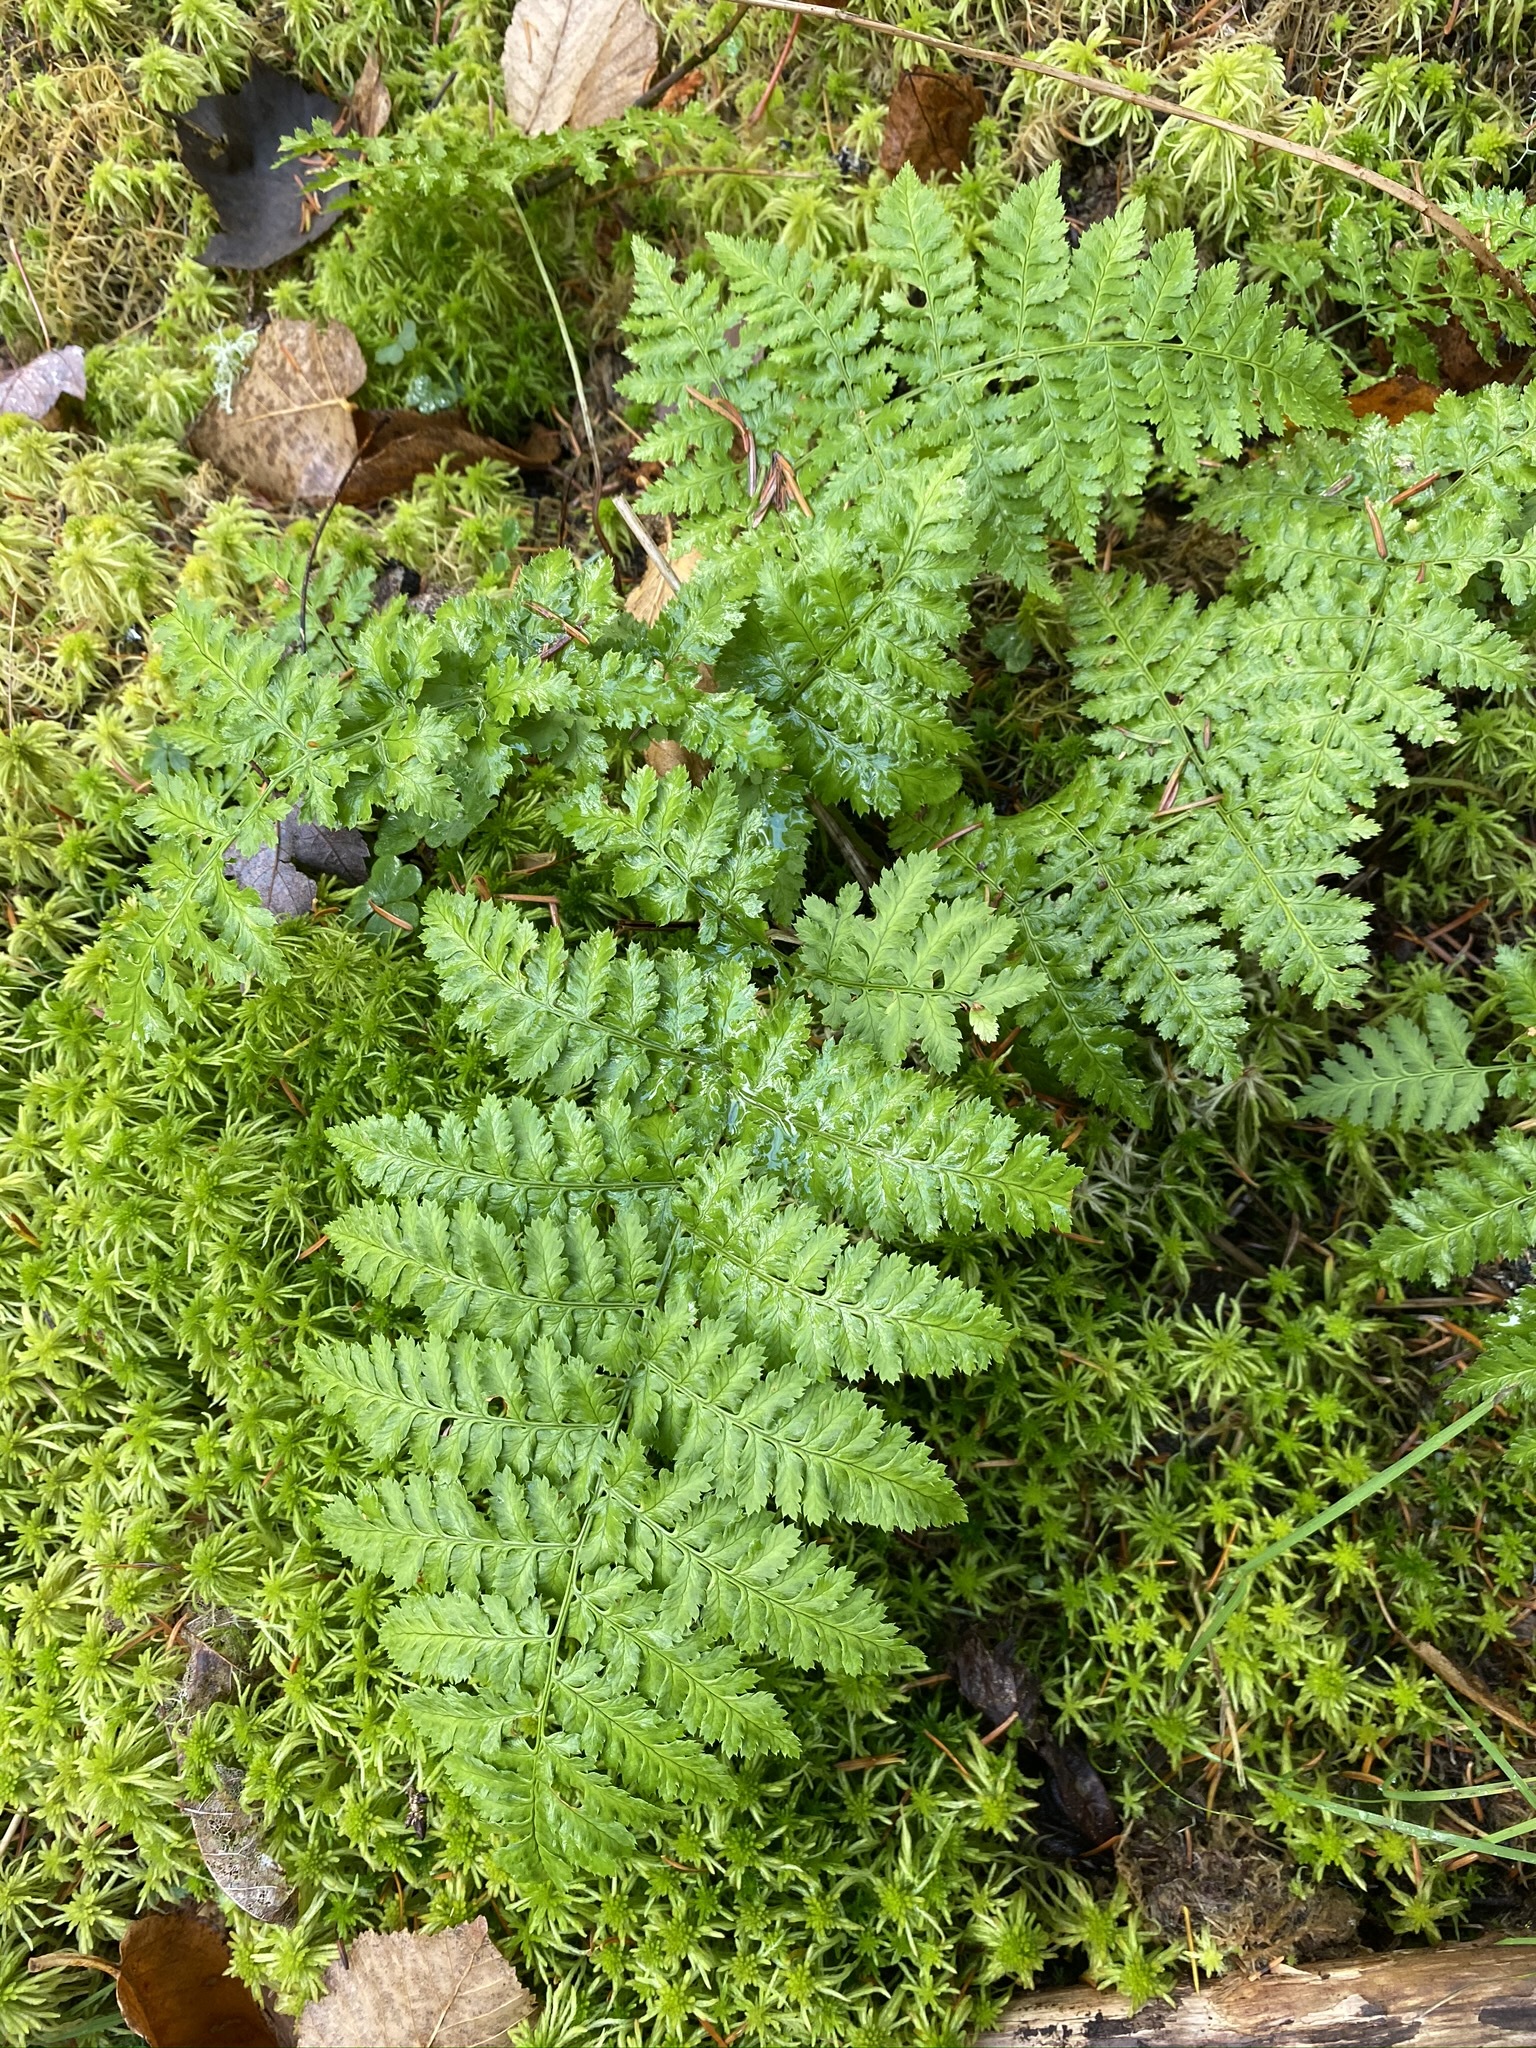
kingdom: Plantae
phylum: Tracheophyta
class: Polypodiopsida
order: Polypodiales
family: Dryopteridaceae
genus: Dryopteris
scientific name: Dryopteris intermedia
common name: Evergreen wood fern
